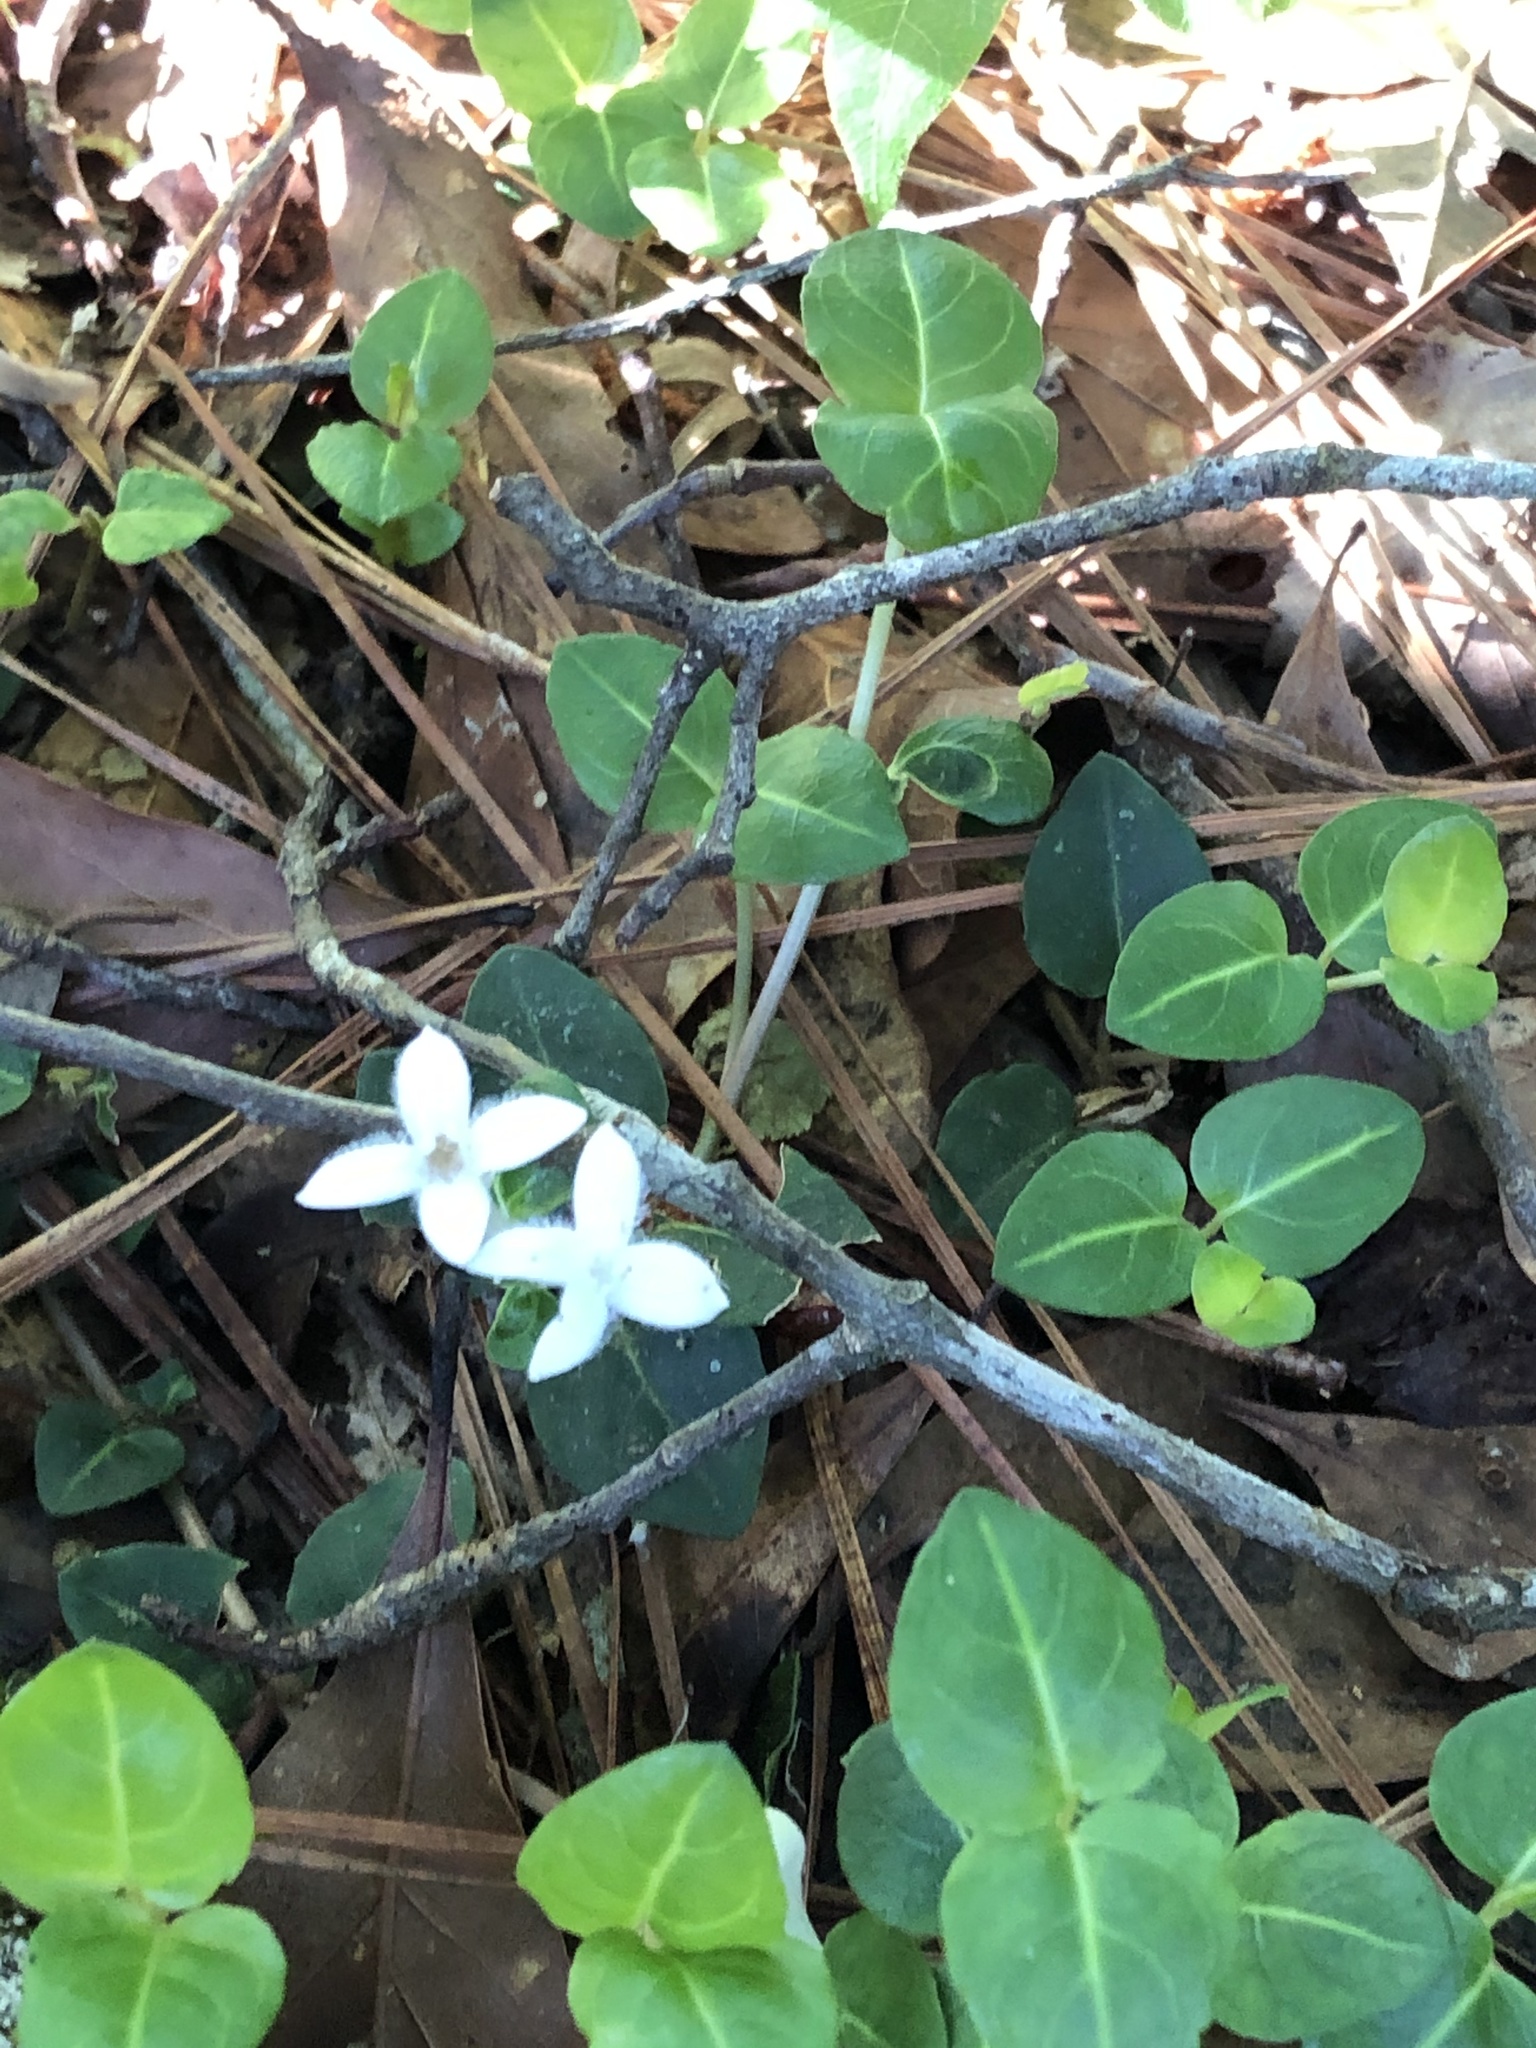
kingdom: Plantae
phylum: Tracheophyta
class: Magnoliopsida
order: Gentianales
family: Rubiaceae
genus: Mitchella
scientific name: Mitchella repens
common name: Partridge-berry
